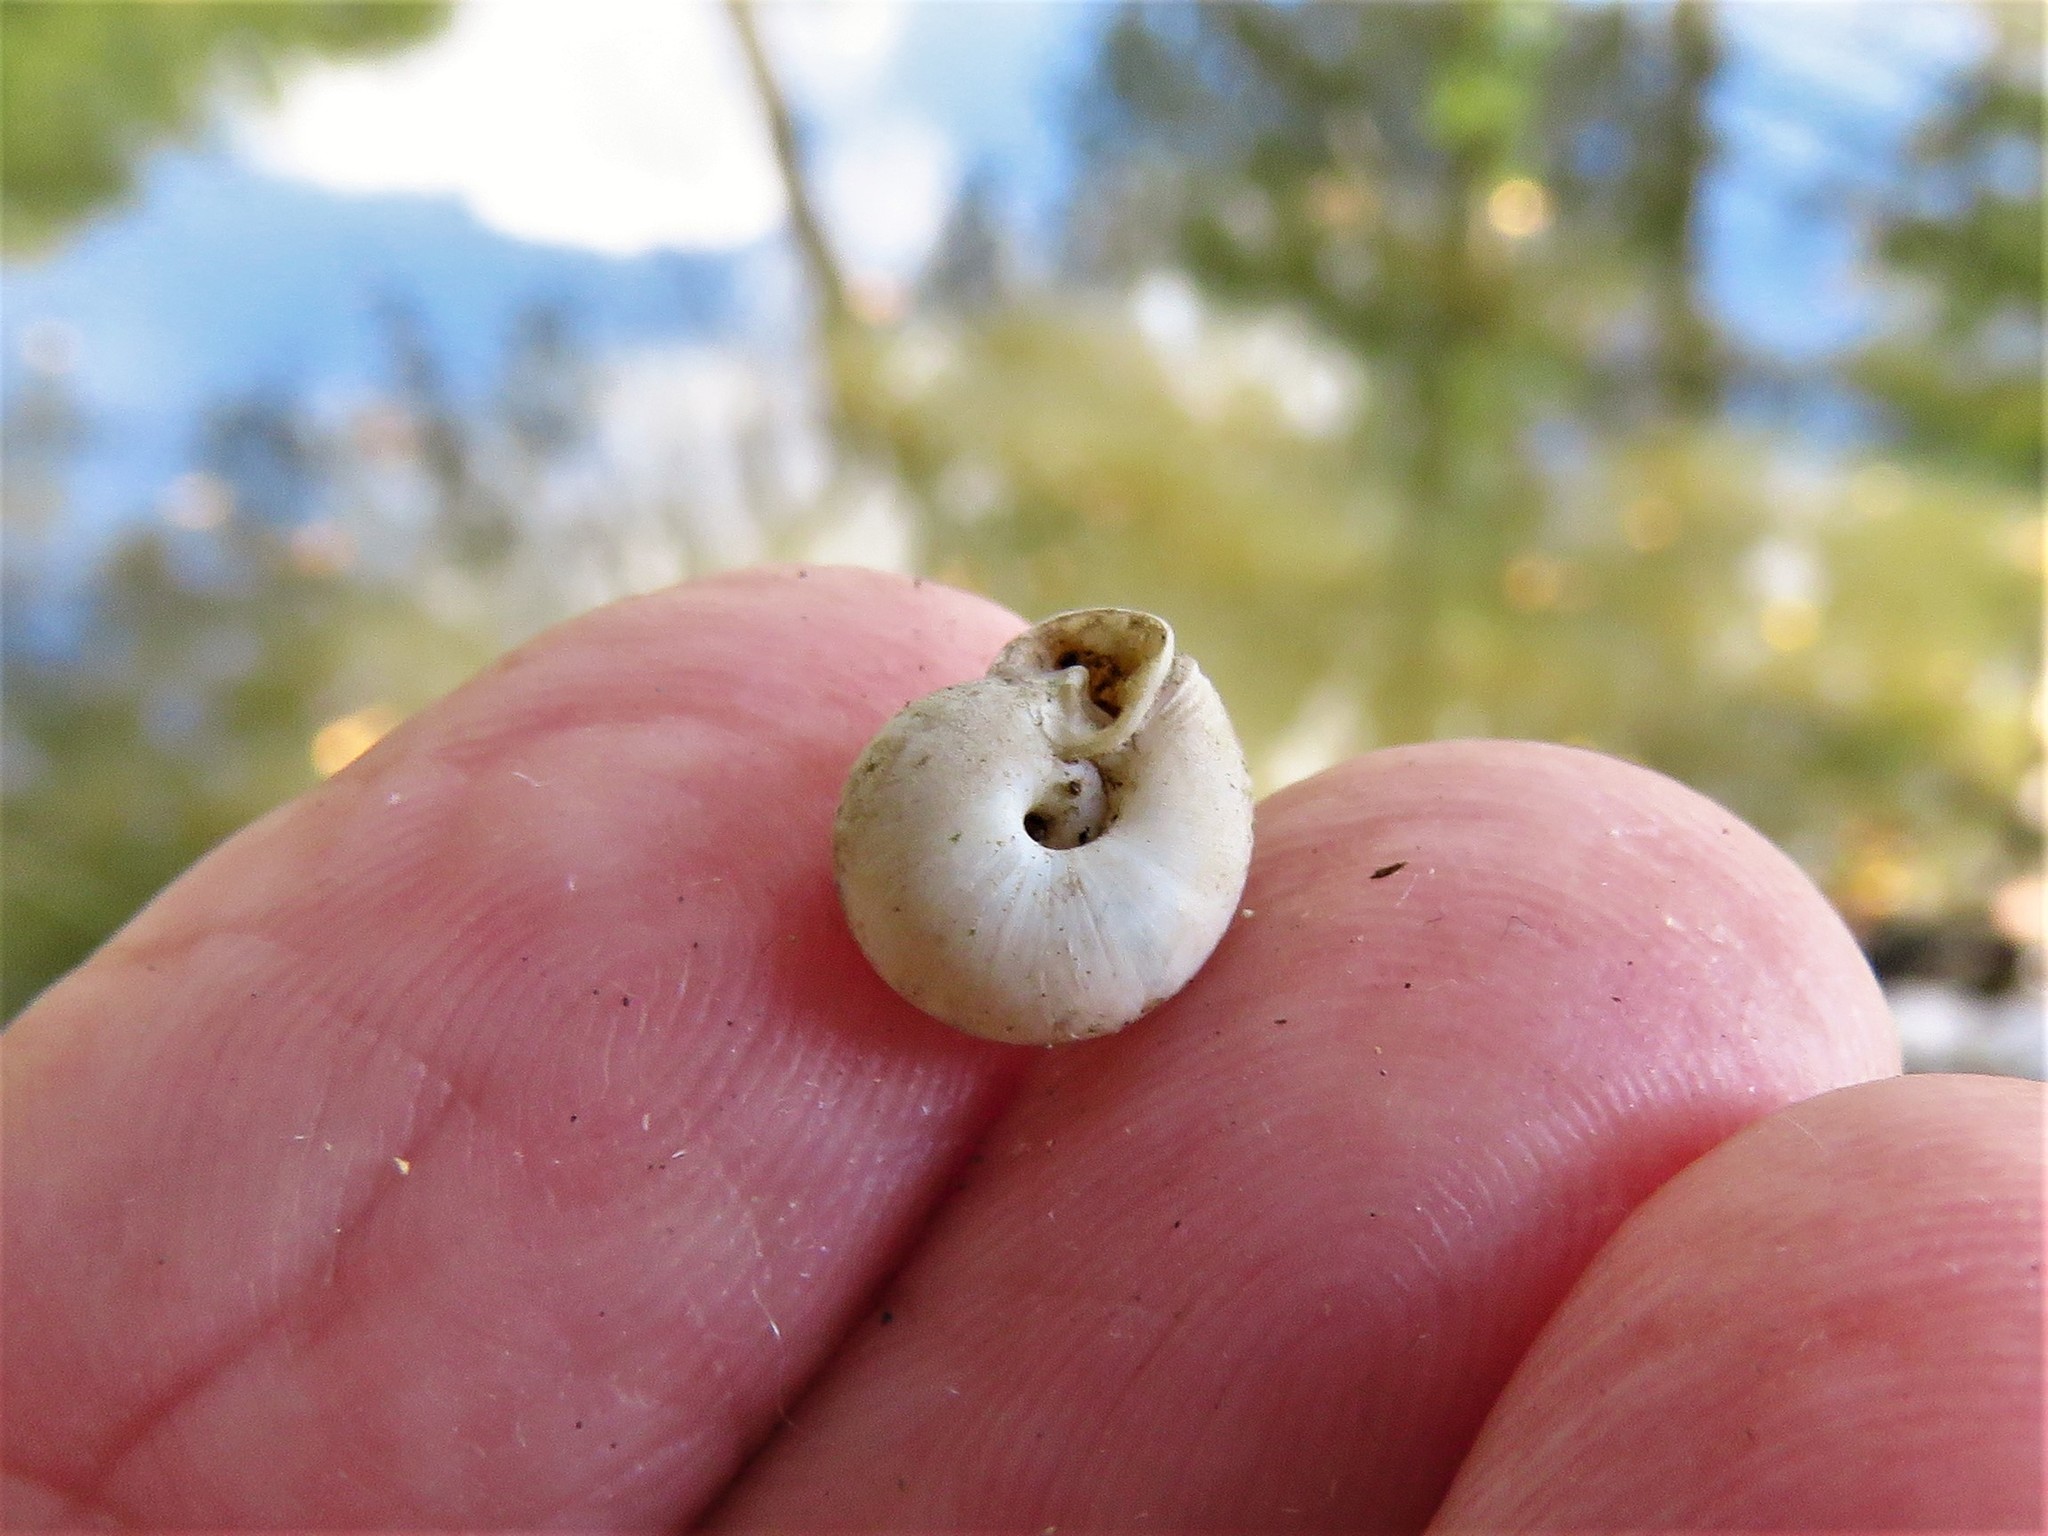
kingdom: Animalia
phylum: Mollusca
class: Gastropoda
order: Stylommatophora
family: Polygyridae
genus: Linisa
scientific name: Linisa texasiana
